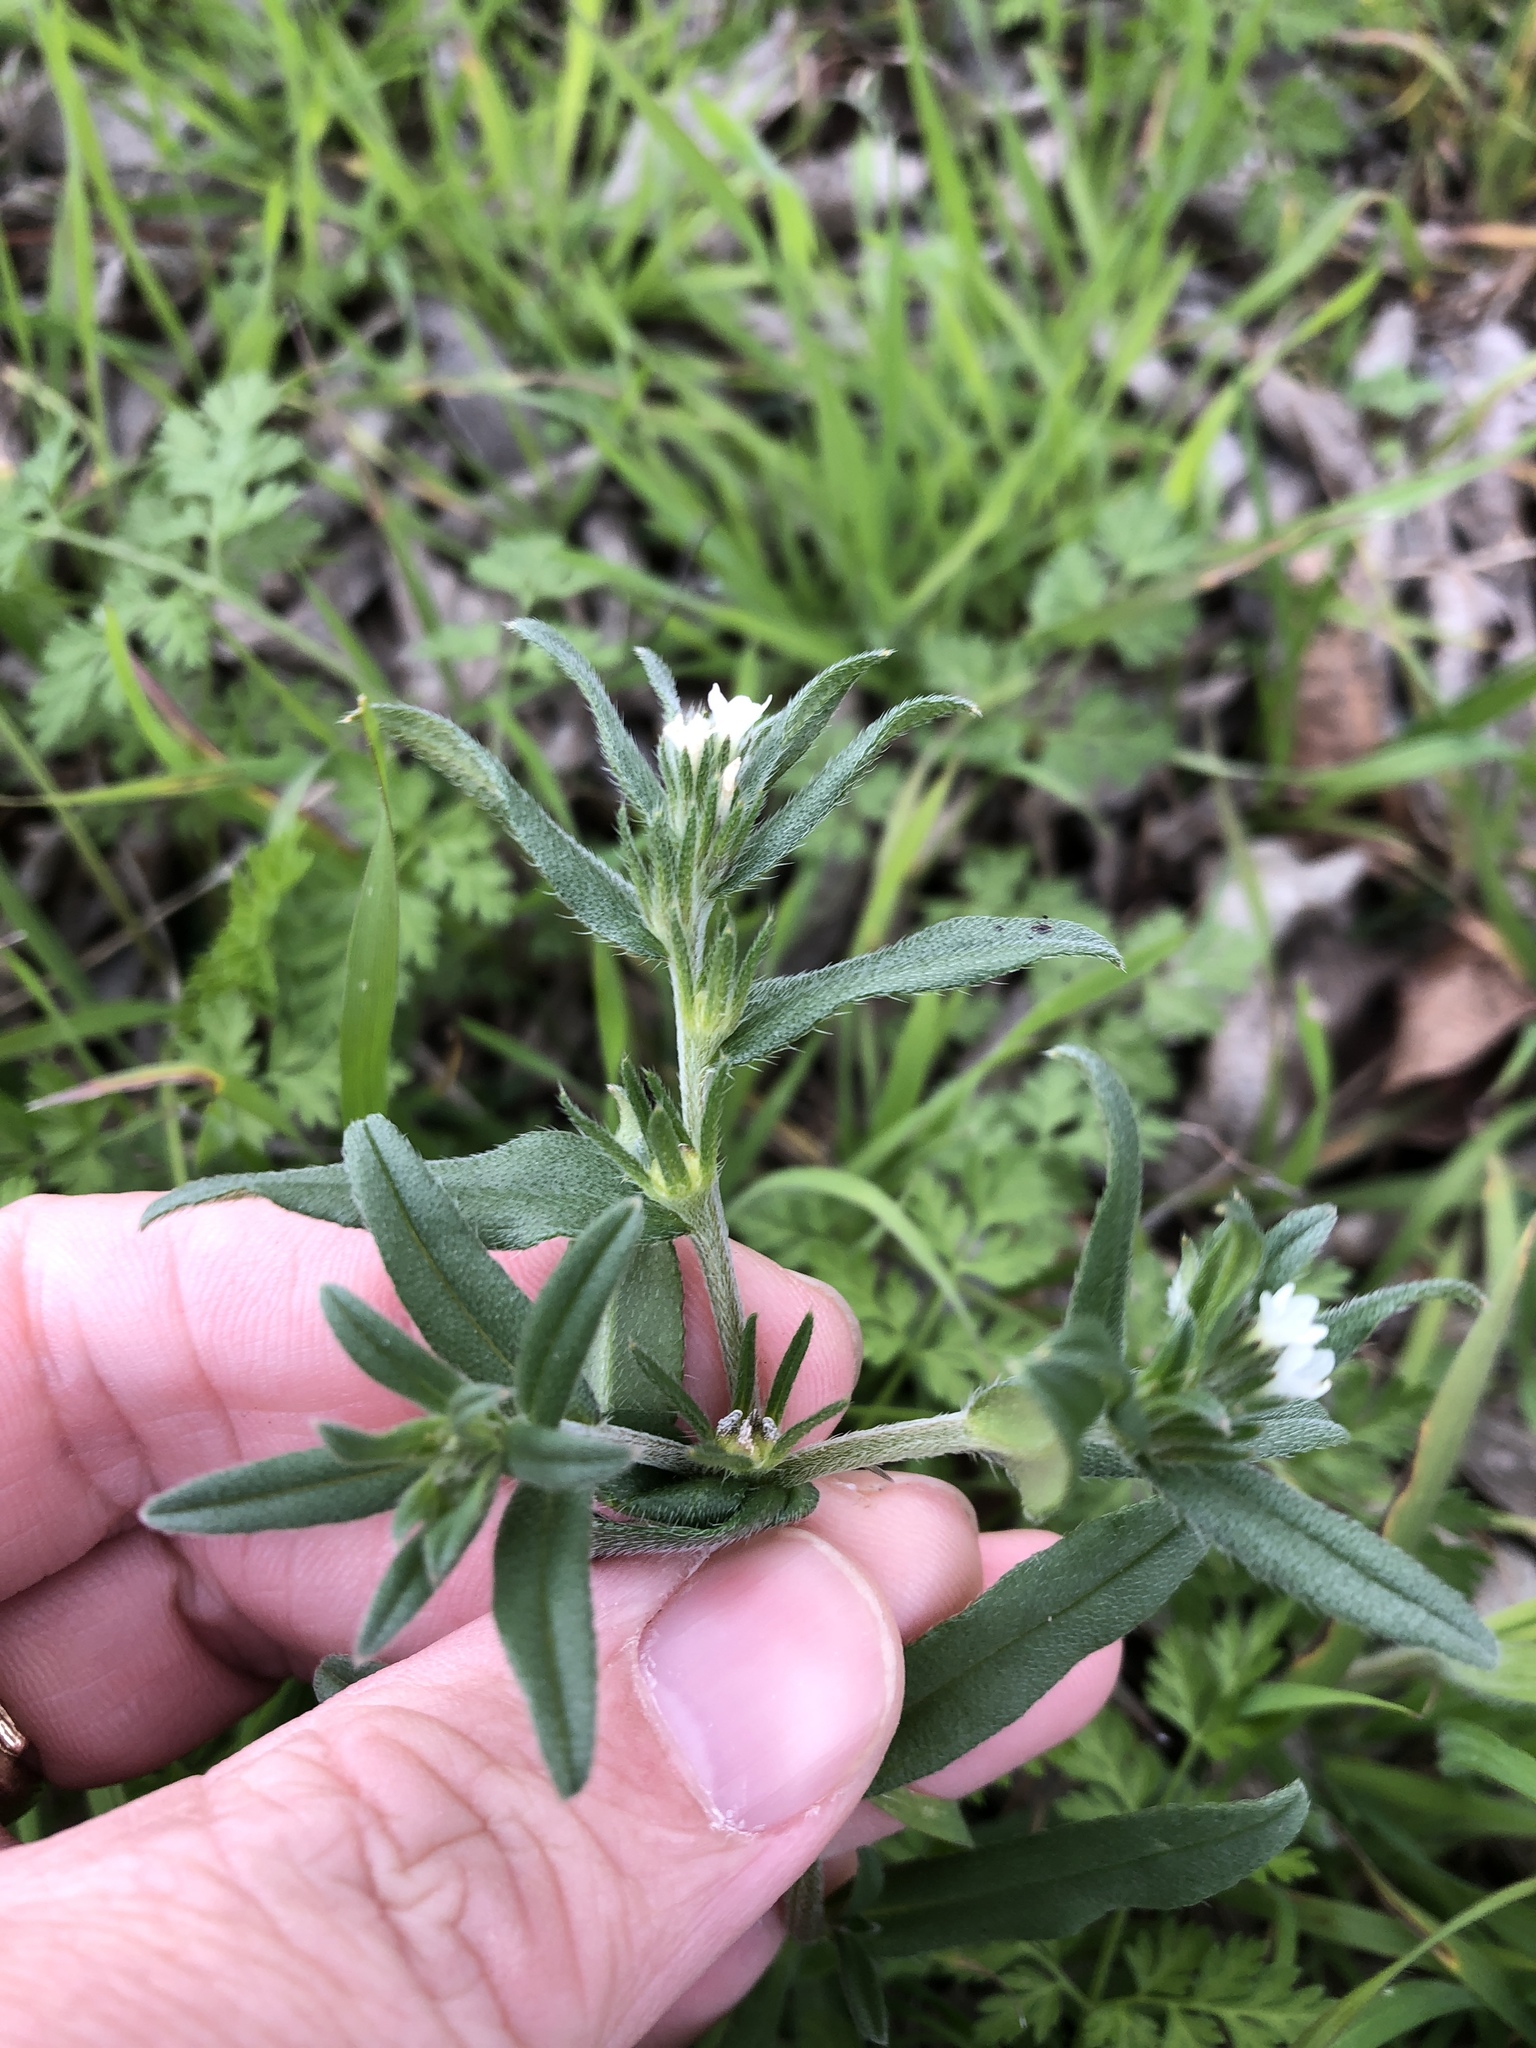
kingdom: Plantae
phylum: Tracheophyta
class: Magnoliopsida
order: Boraginales
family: Boraginaceae
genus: Buglossoides
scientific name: Buglossoides arvensis
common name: Corn gromwell
